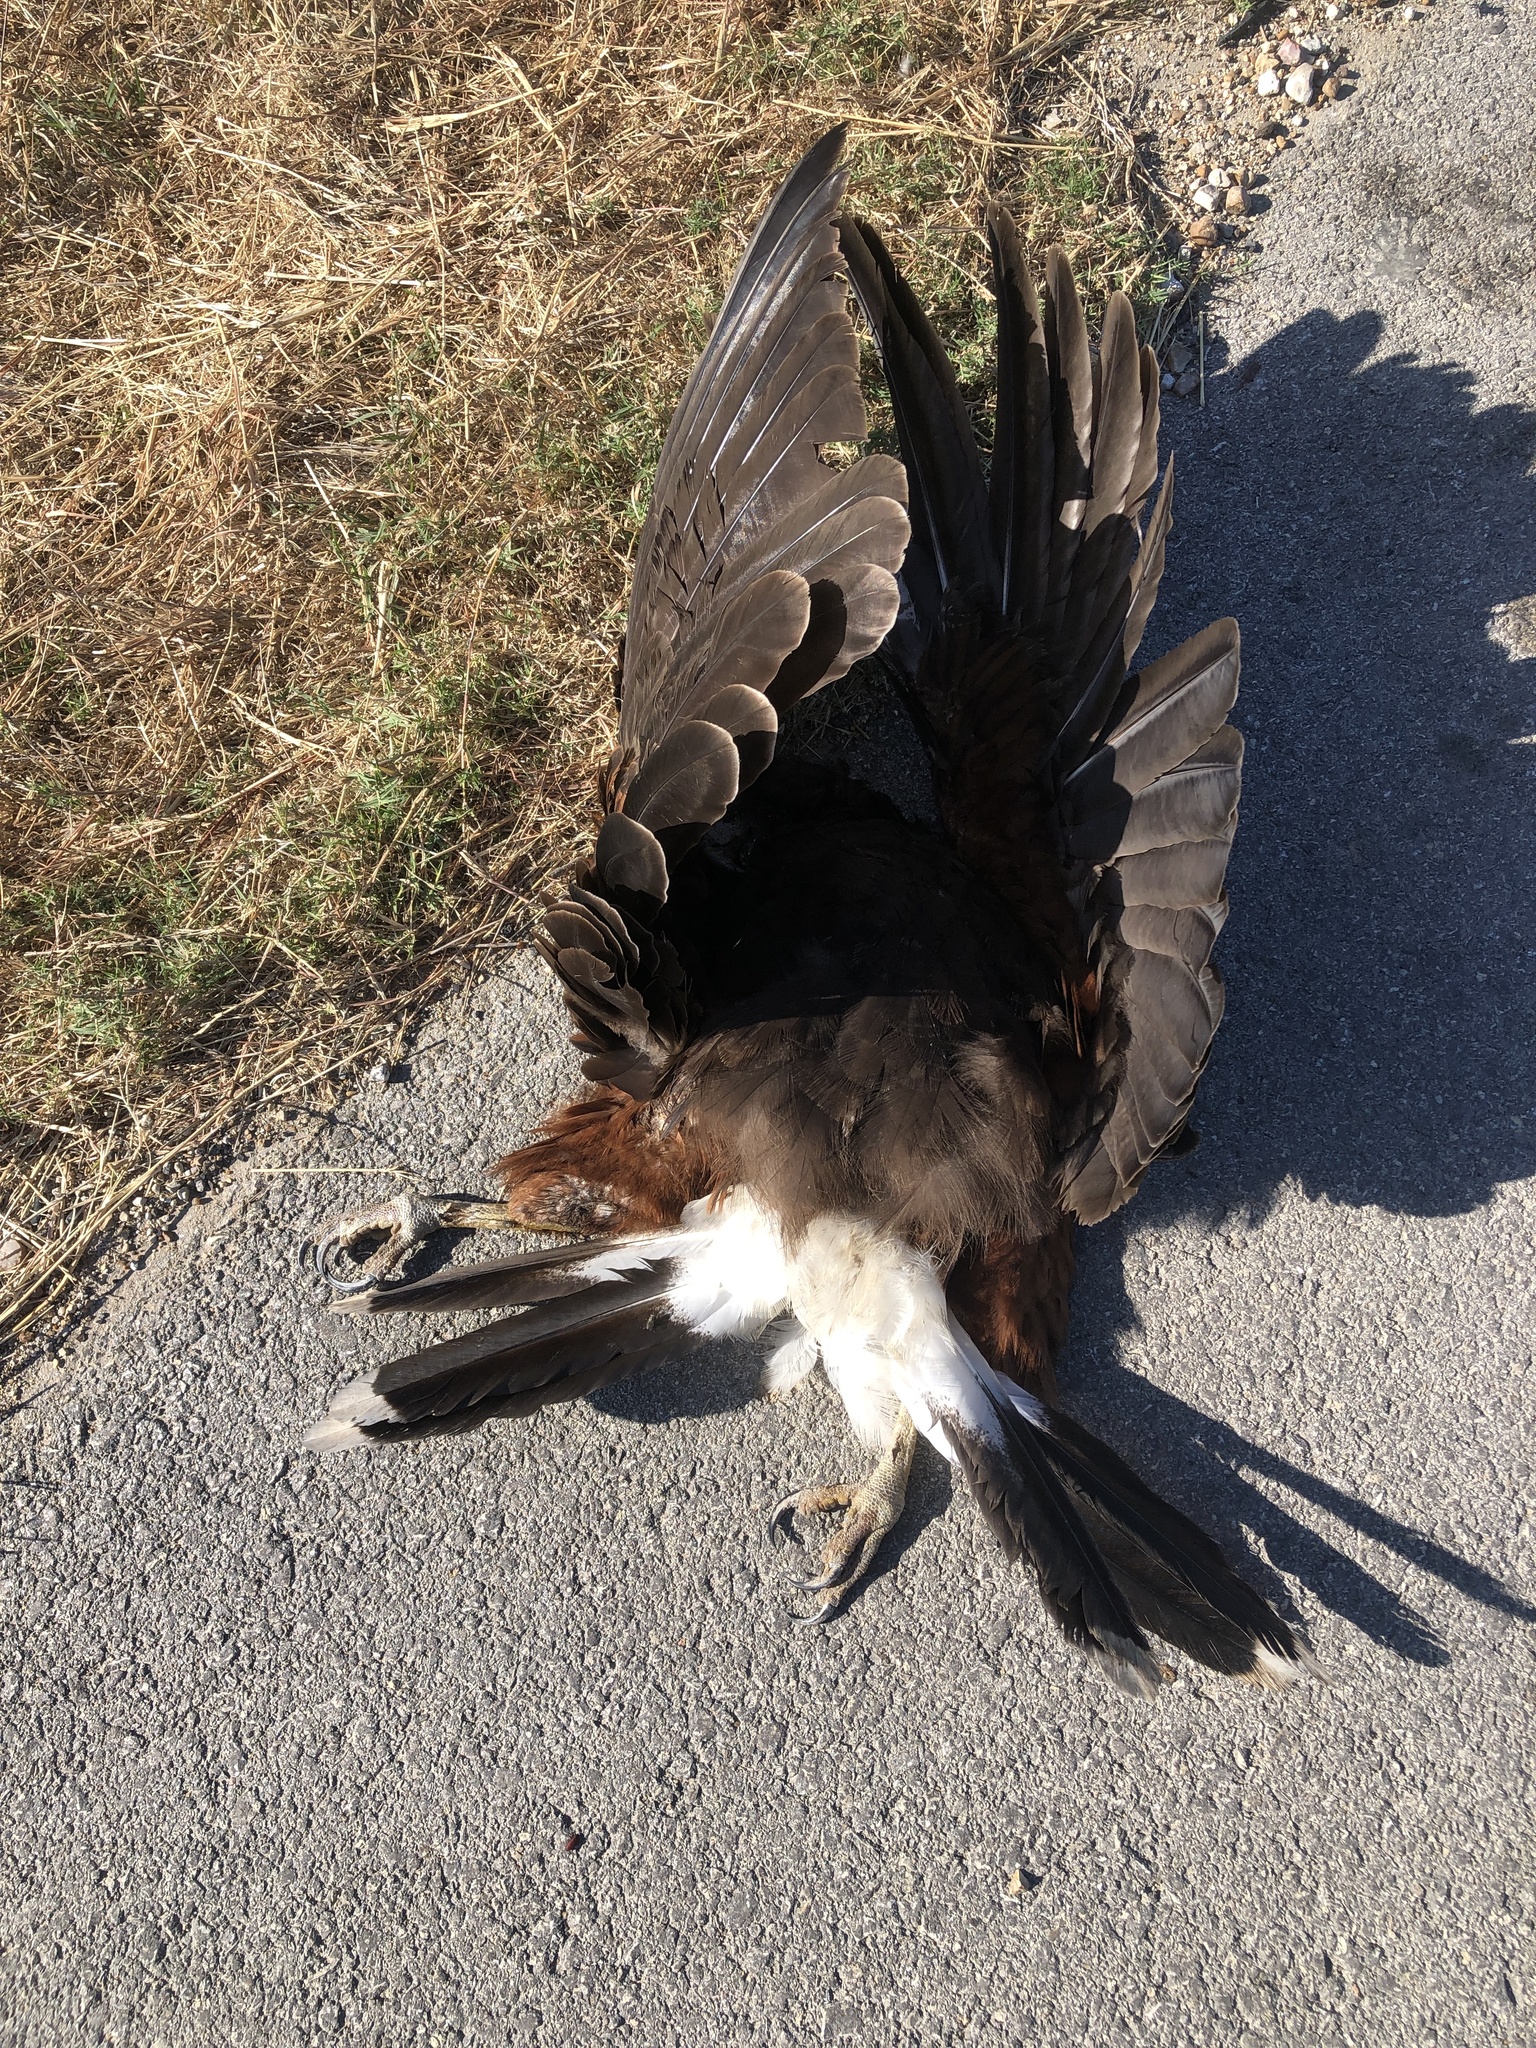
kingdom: Animalia
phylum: Chordata
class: Aves
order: Accipitriformes
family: Accipitridae
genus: Parabuteo
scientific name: Parabuteo unicinctus
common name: Harris's hawk
